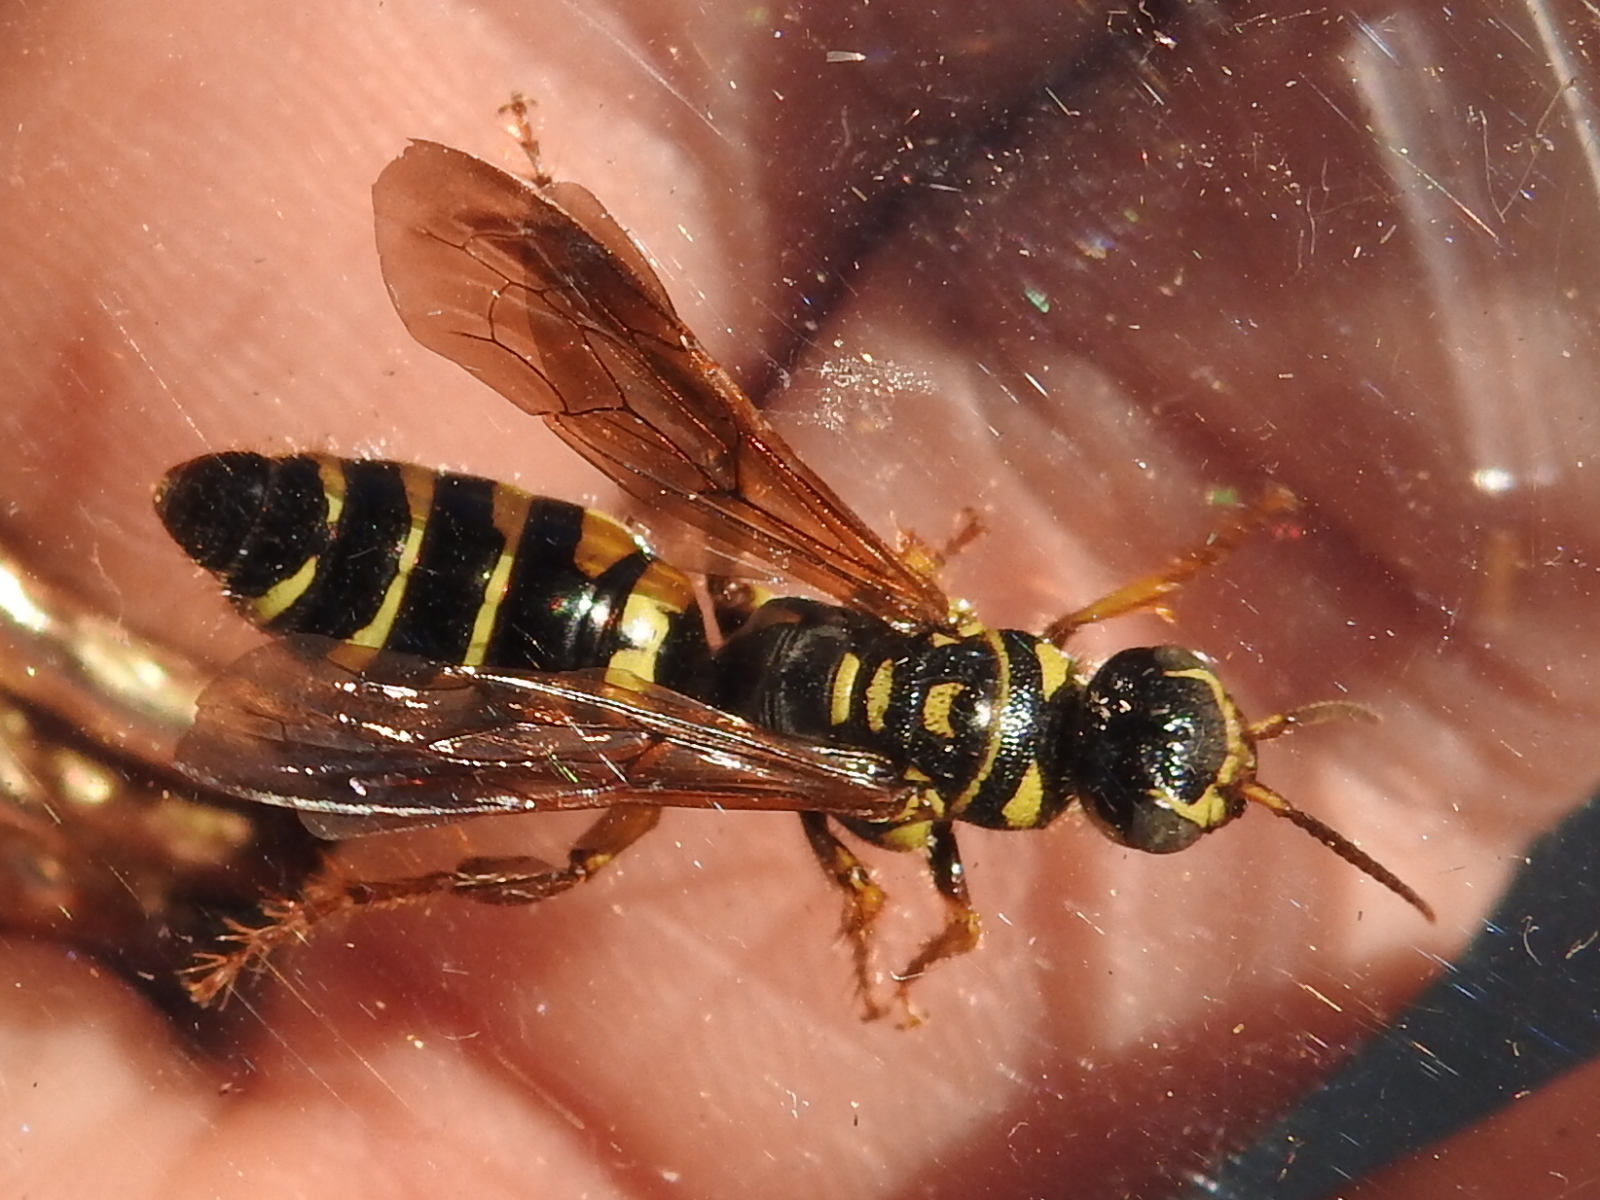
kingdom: Animalia
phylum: Arthropoda
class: Insecta
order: Hymenoptera
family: Tiphiidae
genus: Myzinum
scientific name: Myzinum quinquecinctum
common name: Five-banded thynnid wasp
